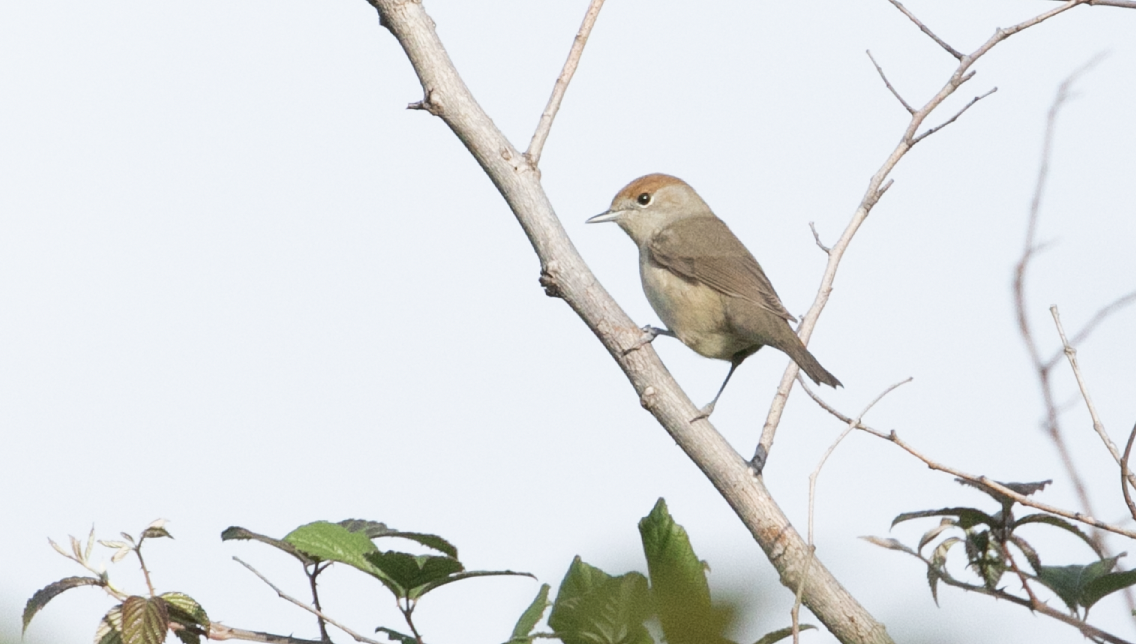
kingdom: Animalia
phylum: Chordata
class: Aves
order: Passeriformes
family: Sylviidae
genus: Sylvia
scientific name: Sylvia atricapilla
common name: Eurasian blackcap
